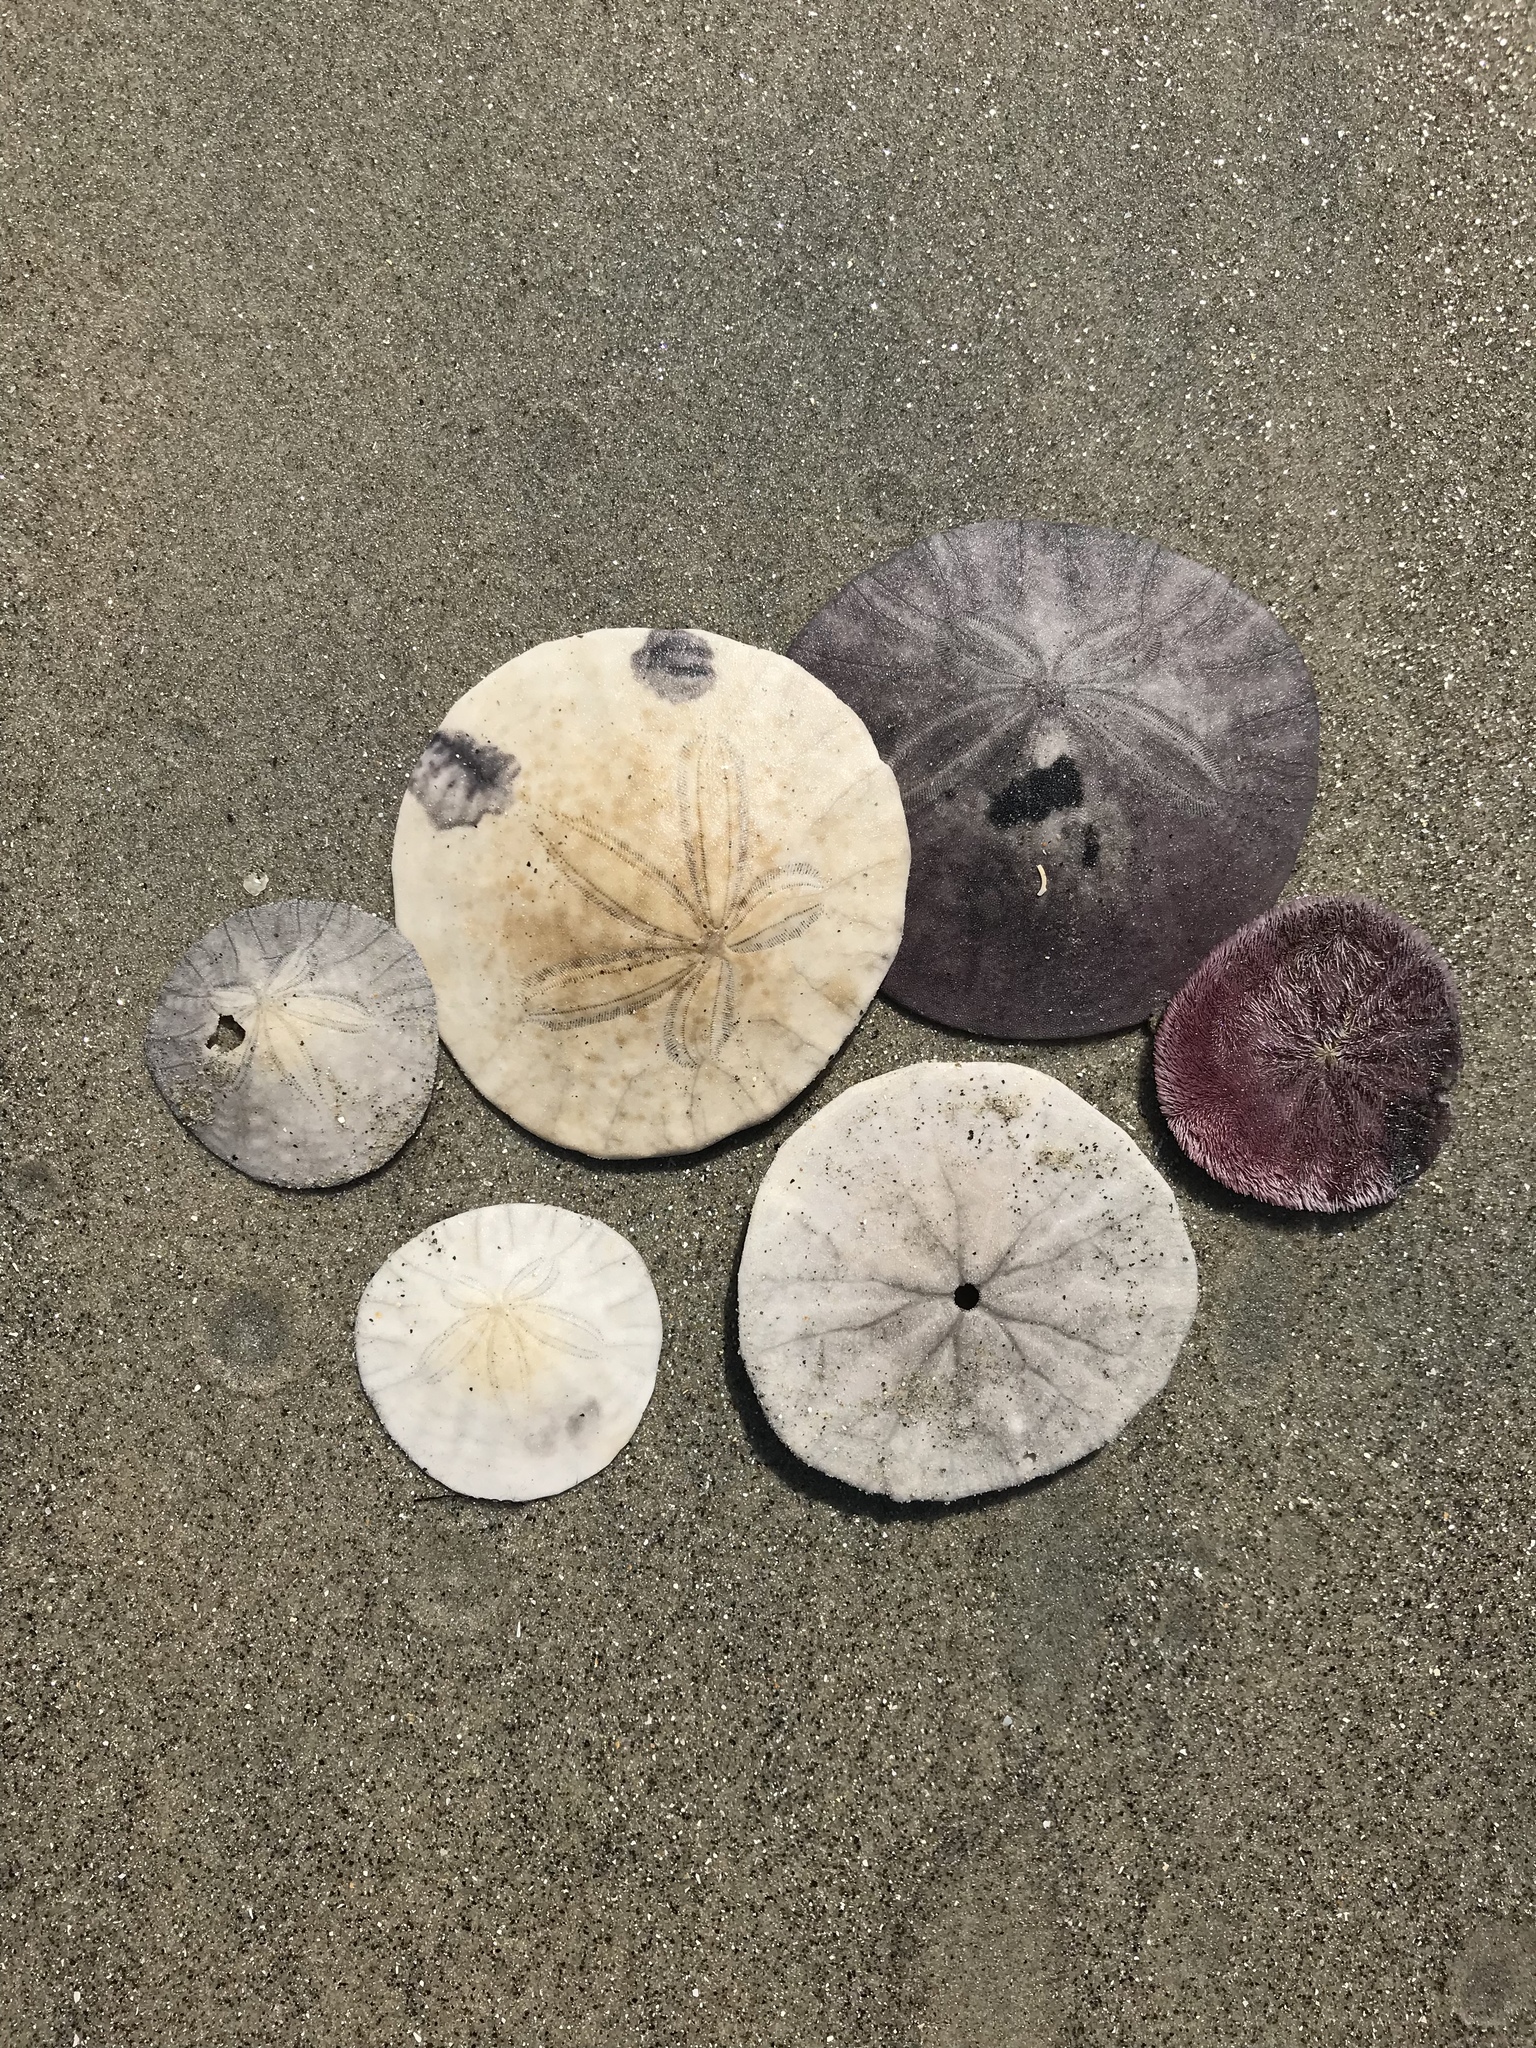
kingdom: Animalia
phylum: Echinodermata
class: Echinoidea
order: Echinolampadacea
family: Dendrasteridae
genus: Dendraster
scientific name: Dendraster excentricus
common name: Eccentric sand dollar sea urchin
